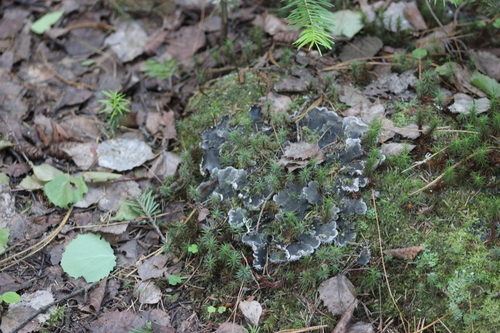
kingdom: Fungi
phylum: Ascomycota
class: Lecanoromycetes
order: Peltigerales
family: Peltigeraceae
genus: Peltigera
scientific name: Peltigera
